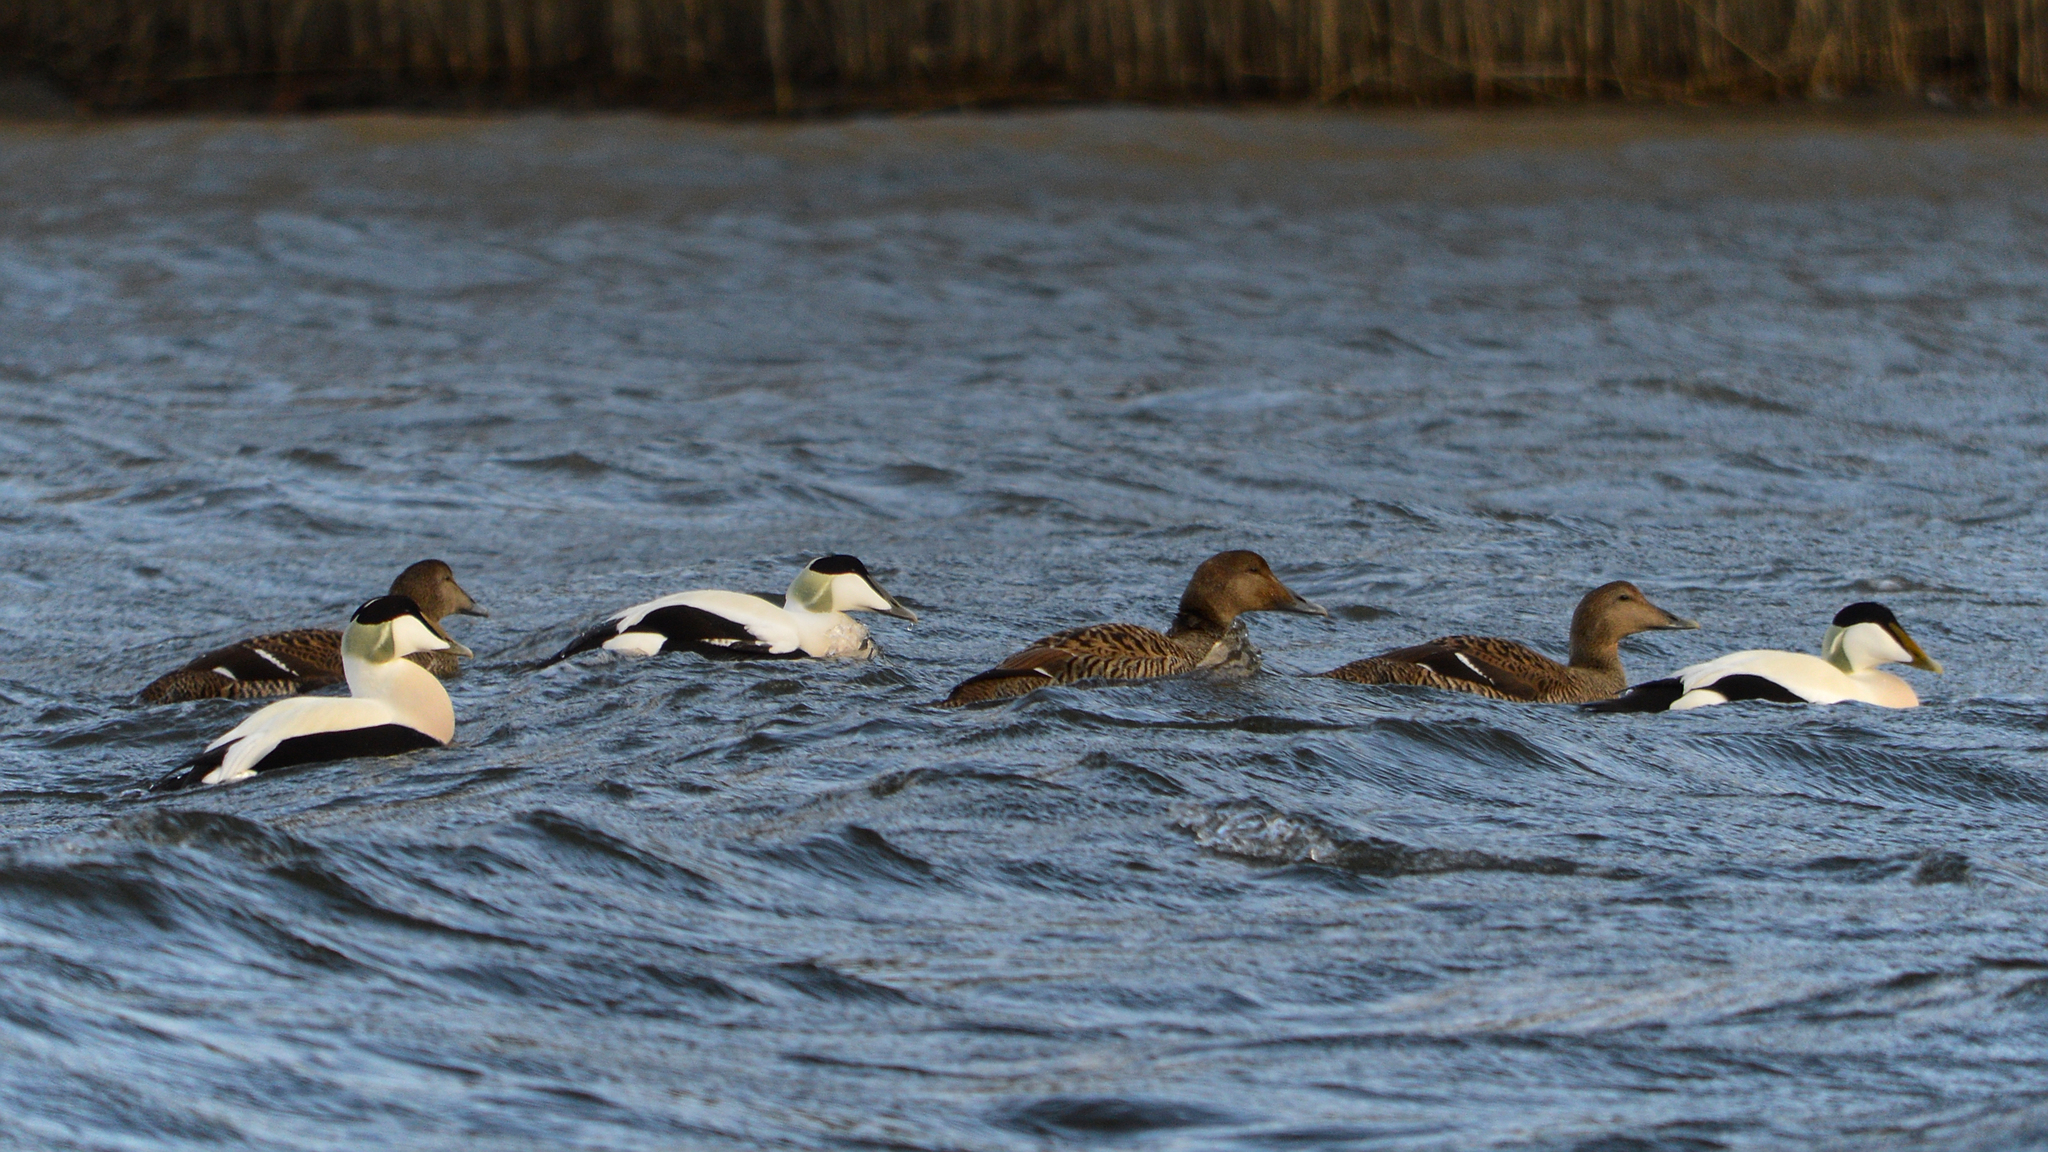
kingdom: Animalia
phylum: Chordata
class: Aves
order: Anseriformes
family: Anatidae
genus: Somateria
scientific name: Somateria mollissima
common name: Common eider
